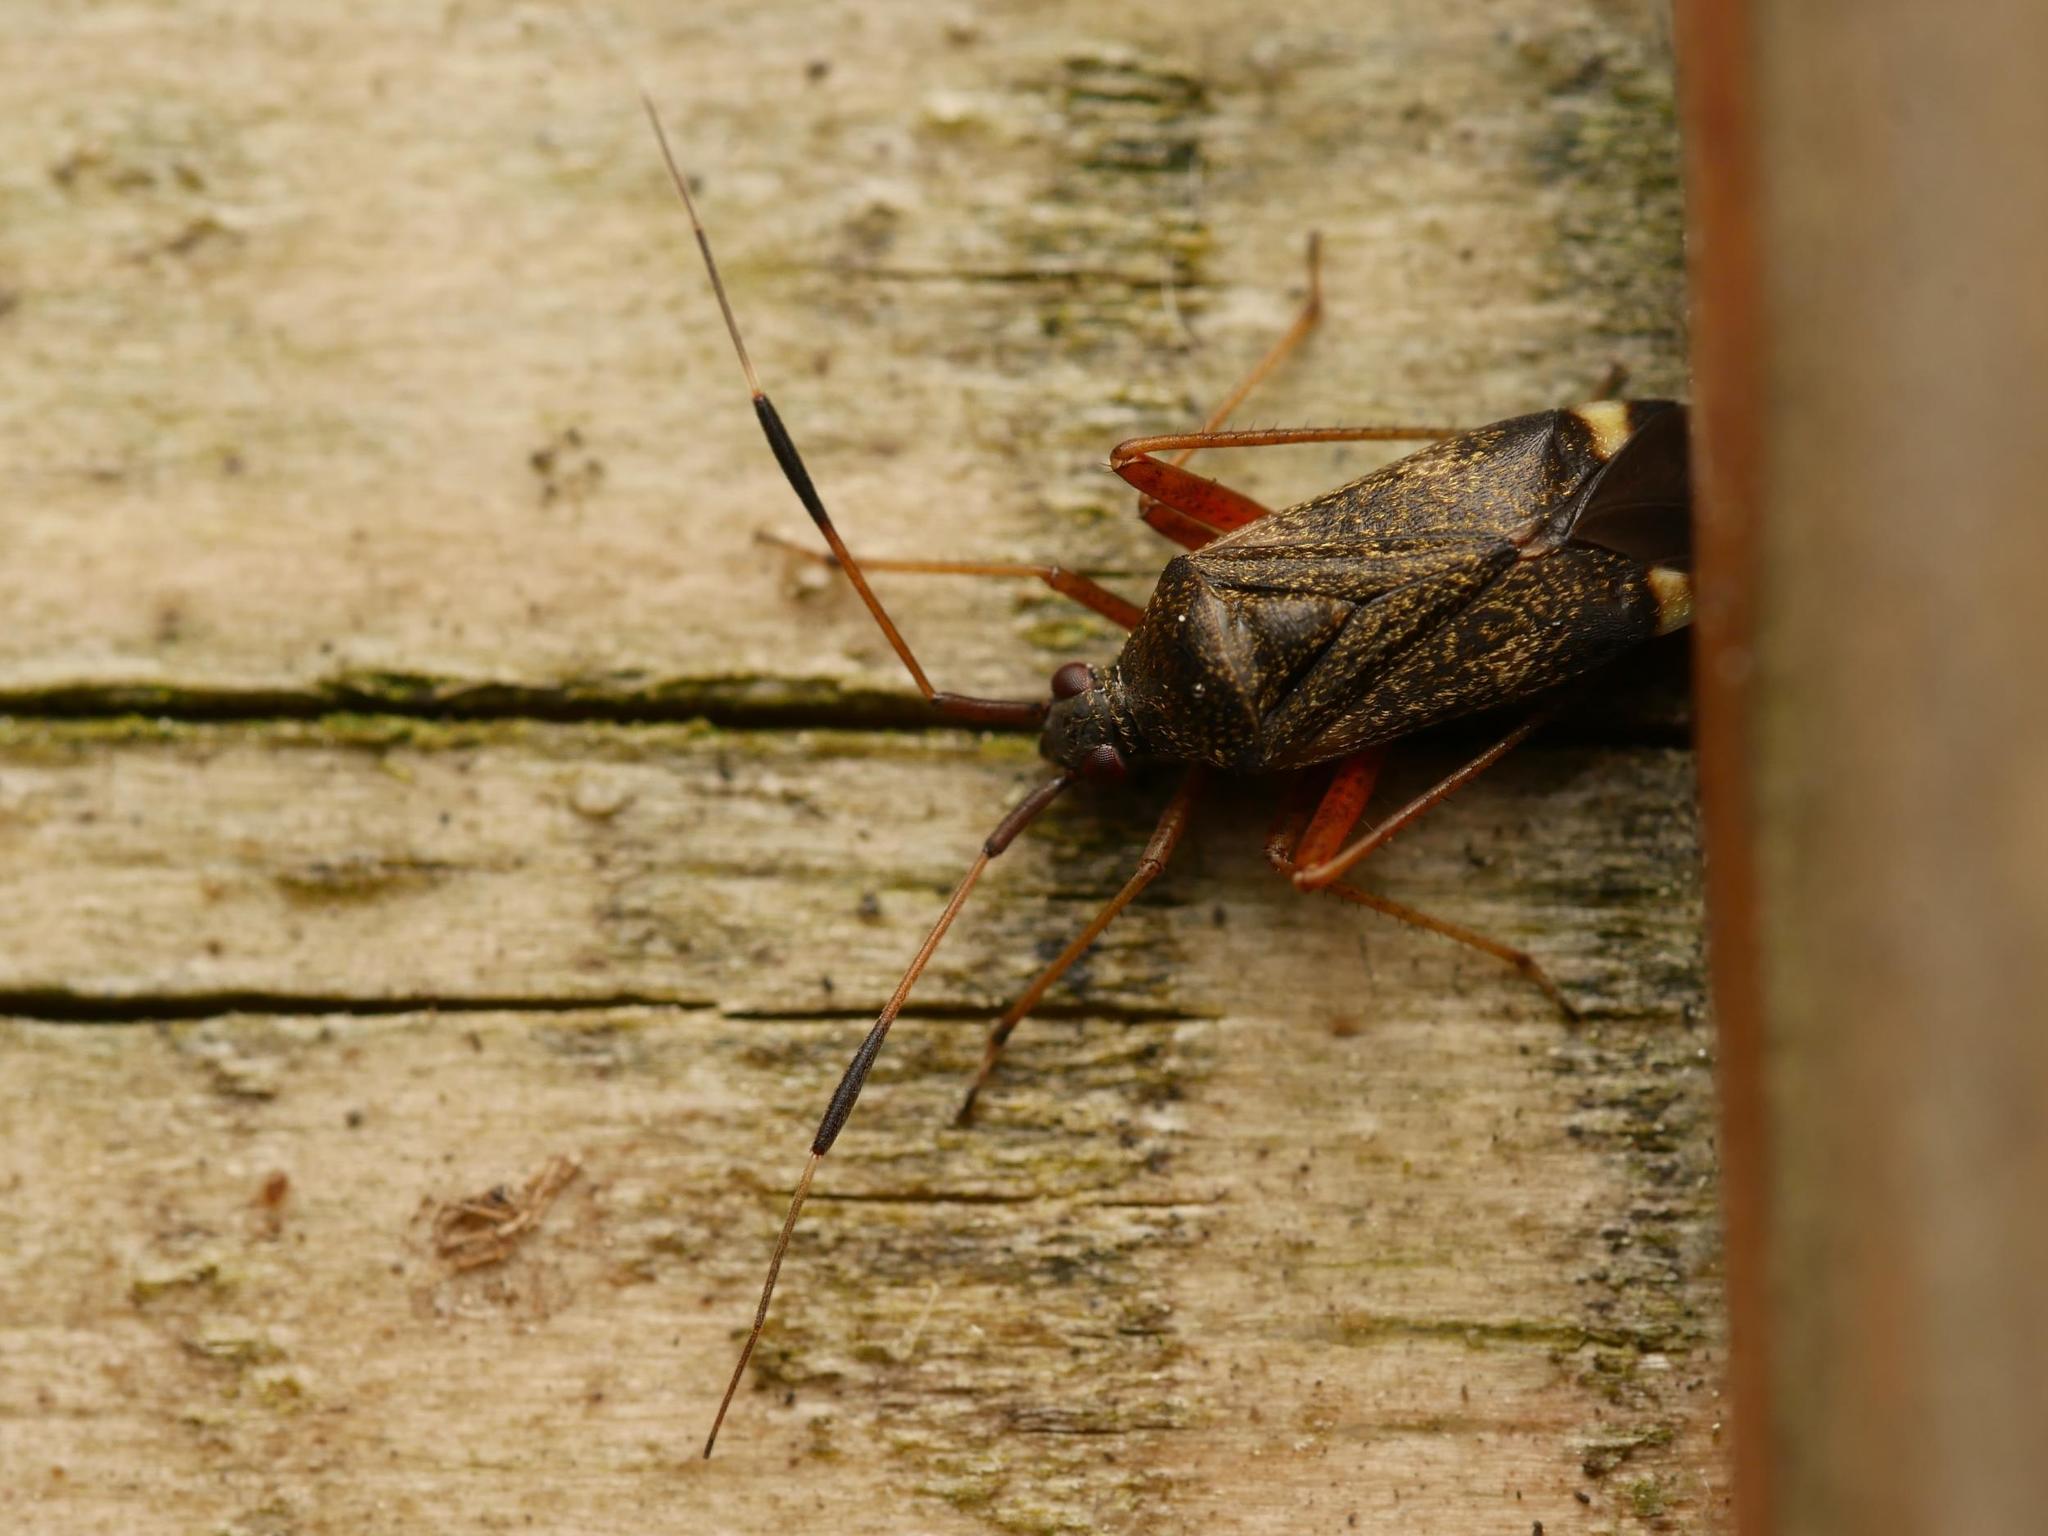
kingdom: Animalia
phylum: Arthropoda
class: Insecta
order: Hemiptera
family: Miridae
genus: Closterotomus
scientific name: Closterotomus biclavatus
